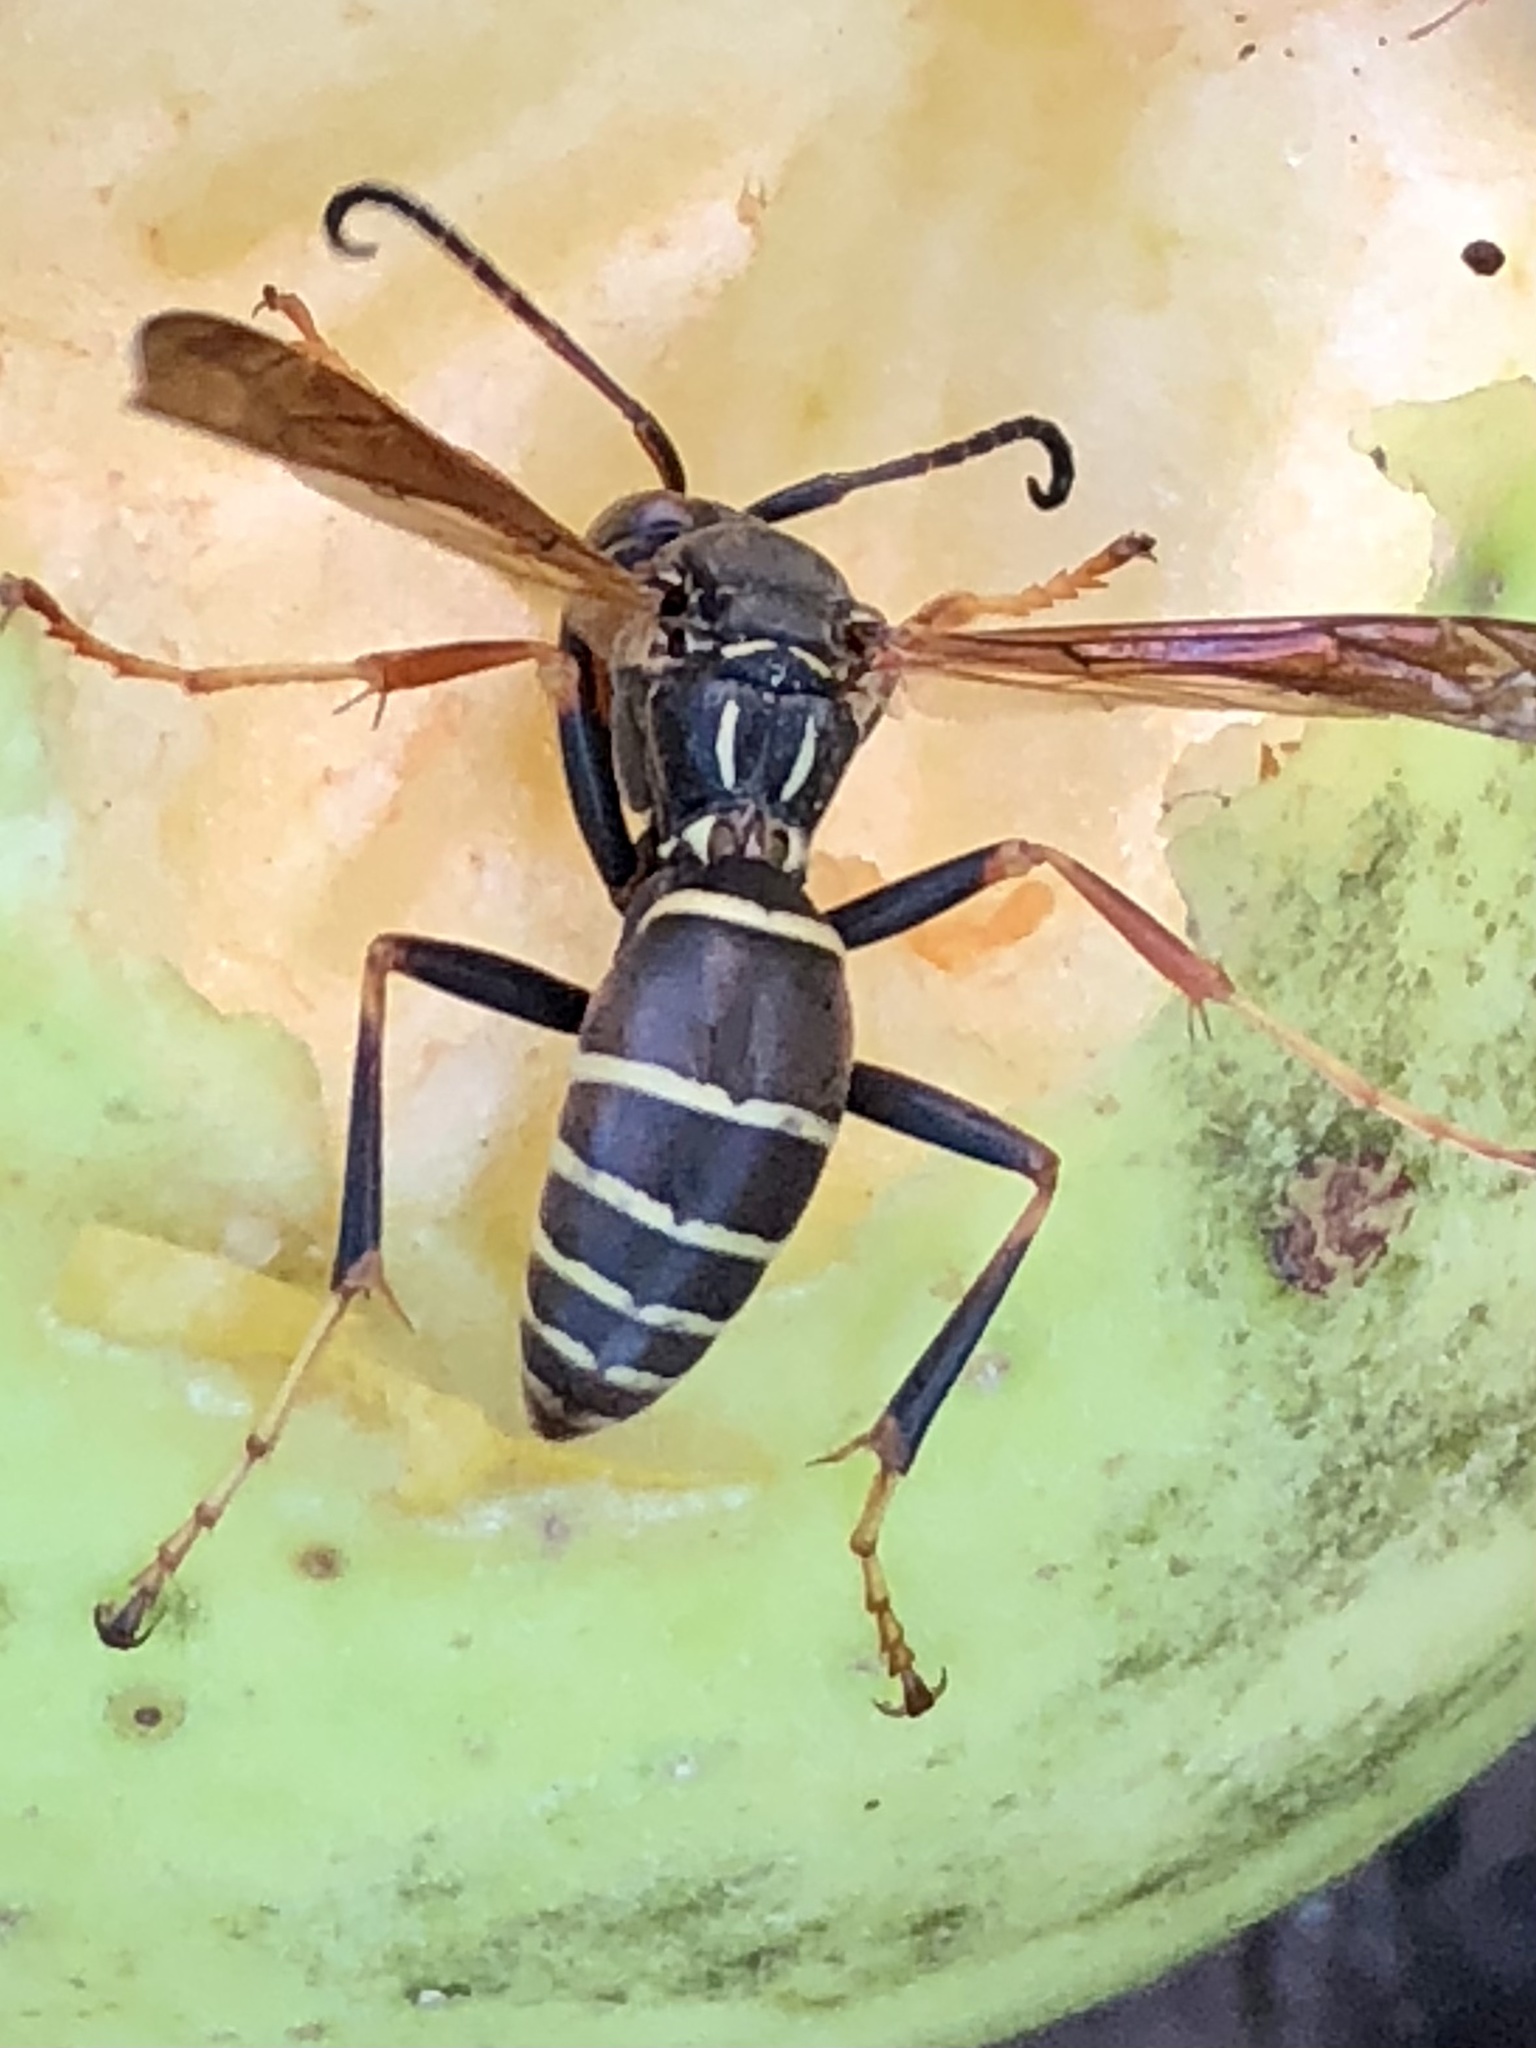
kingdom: Animalia
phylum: Arthropoda
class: Insecta
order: Hymenoptera
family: Eumenidae
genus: Polistes
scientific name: Polistes fuscatus
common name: Dark paper wasp
